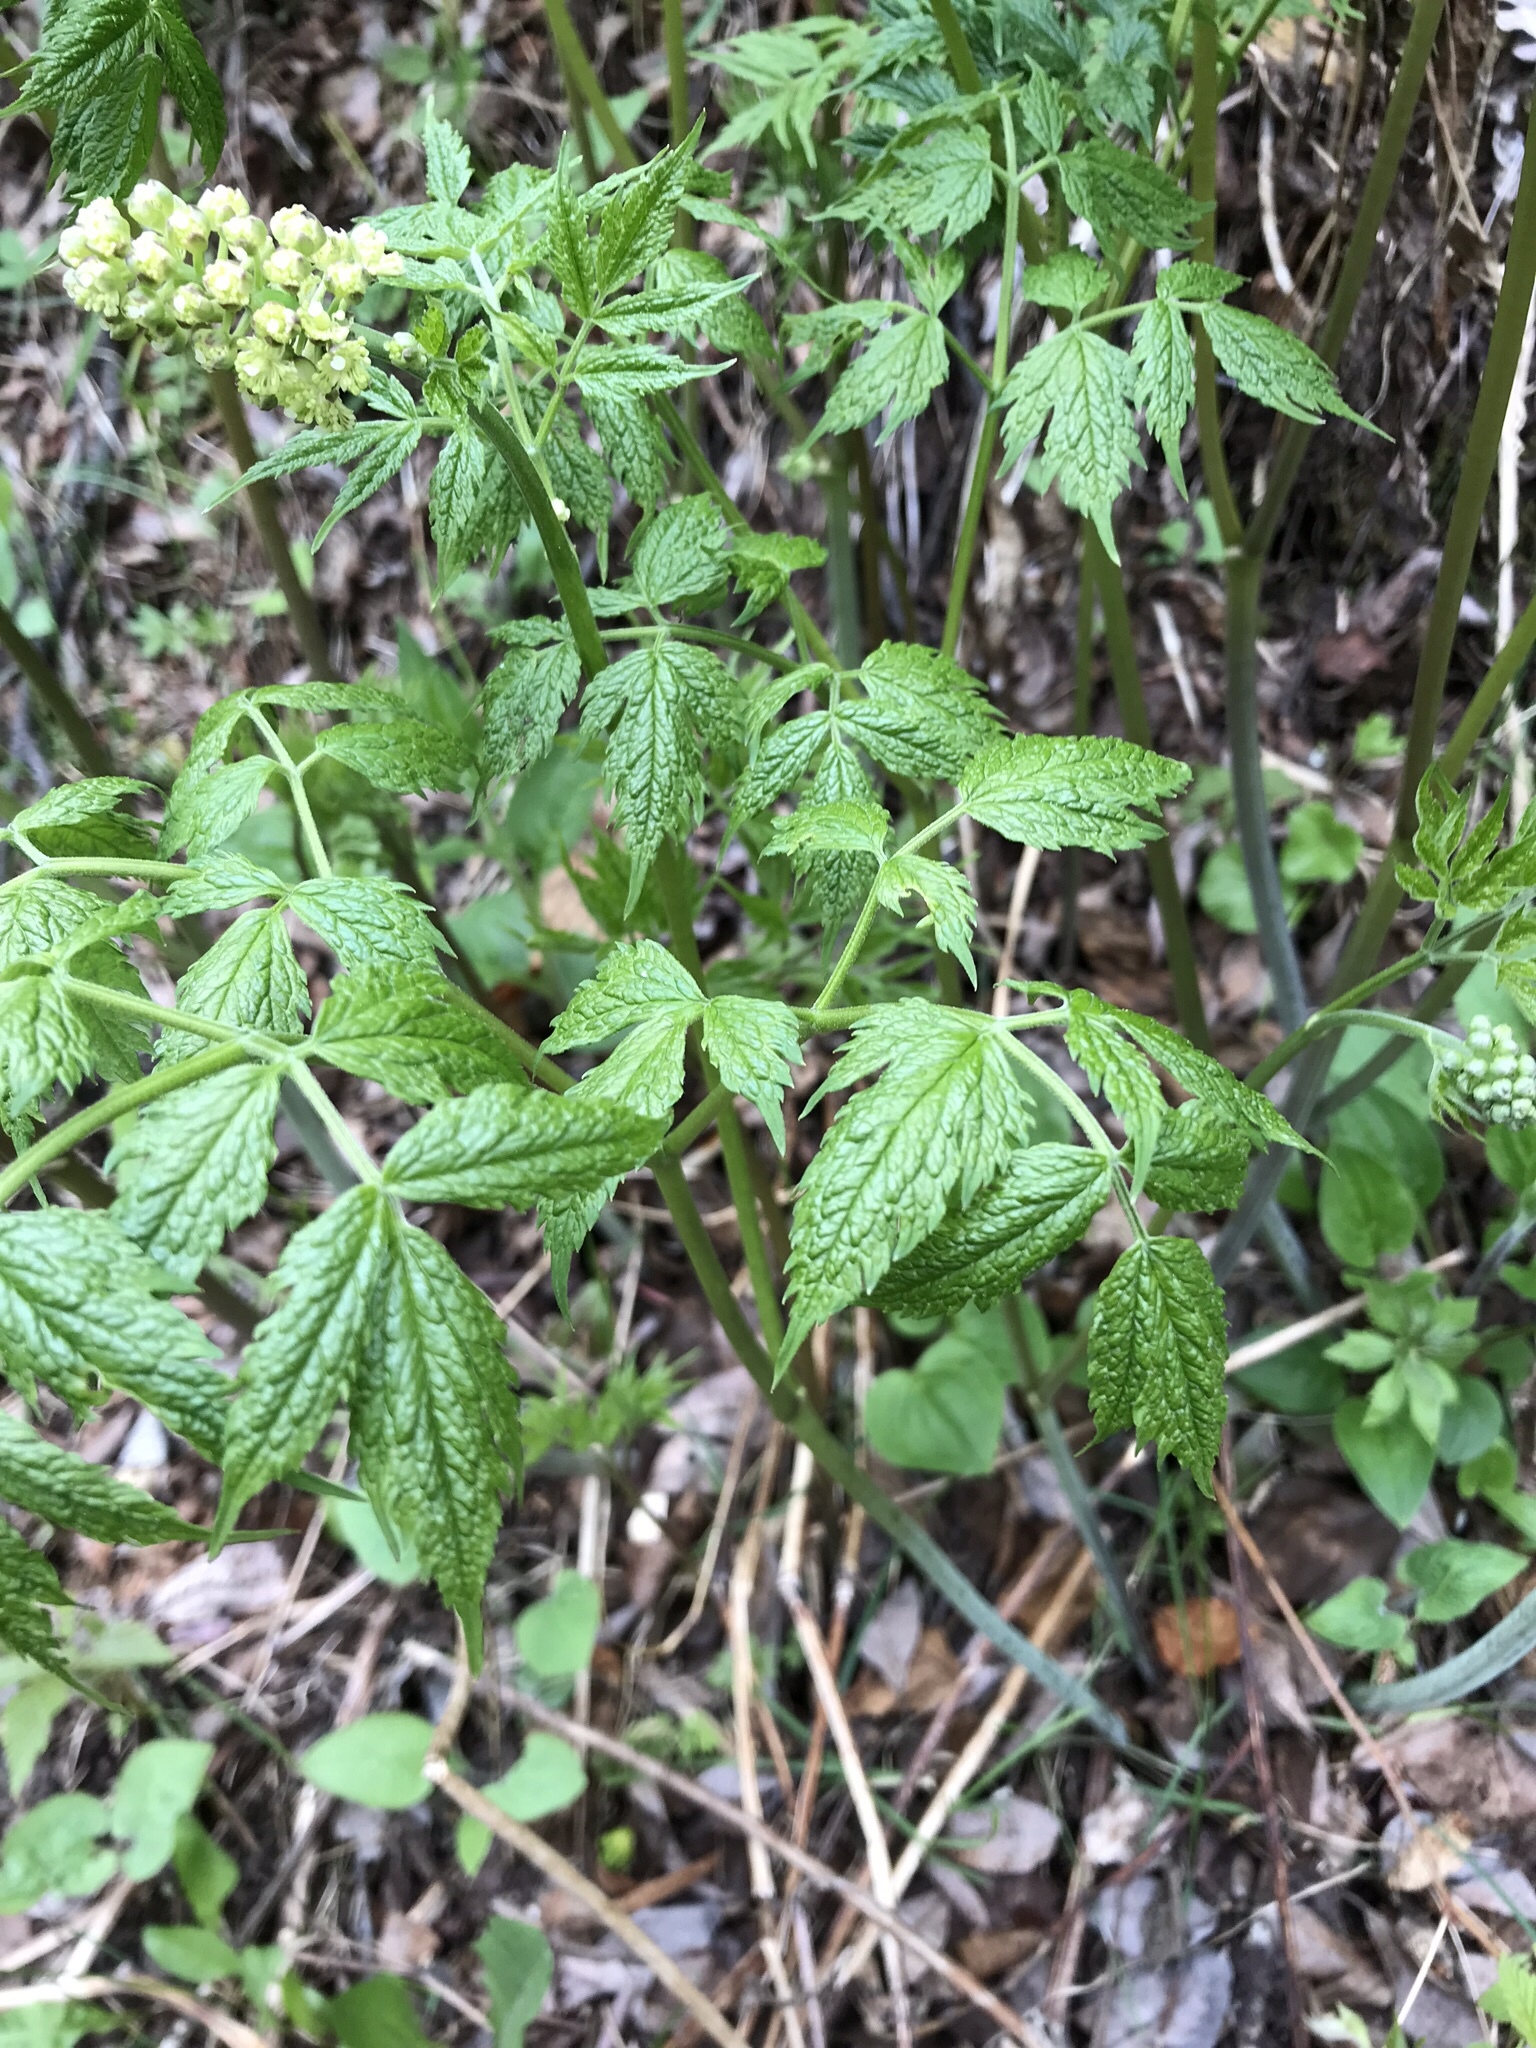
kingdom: Plantae
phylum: Tracheophyta
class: Magnoliopsida
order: Ranunculales
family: Ranunculaceae
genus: Actaea
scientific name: Actaea rubra
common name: Red baneberry
